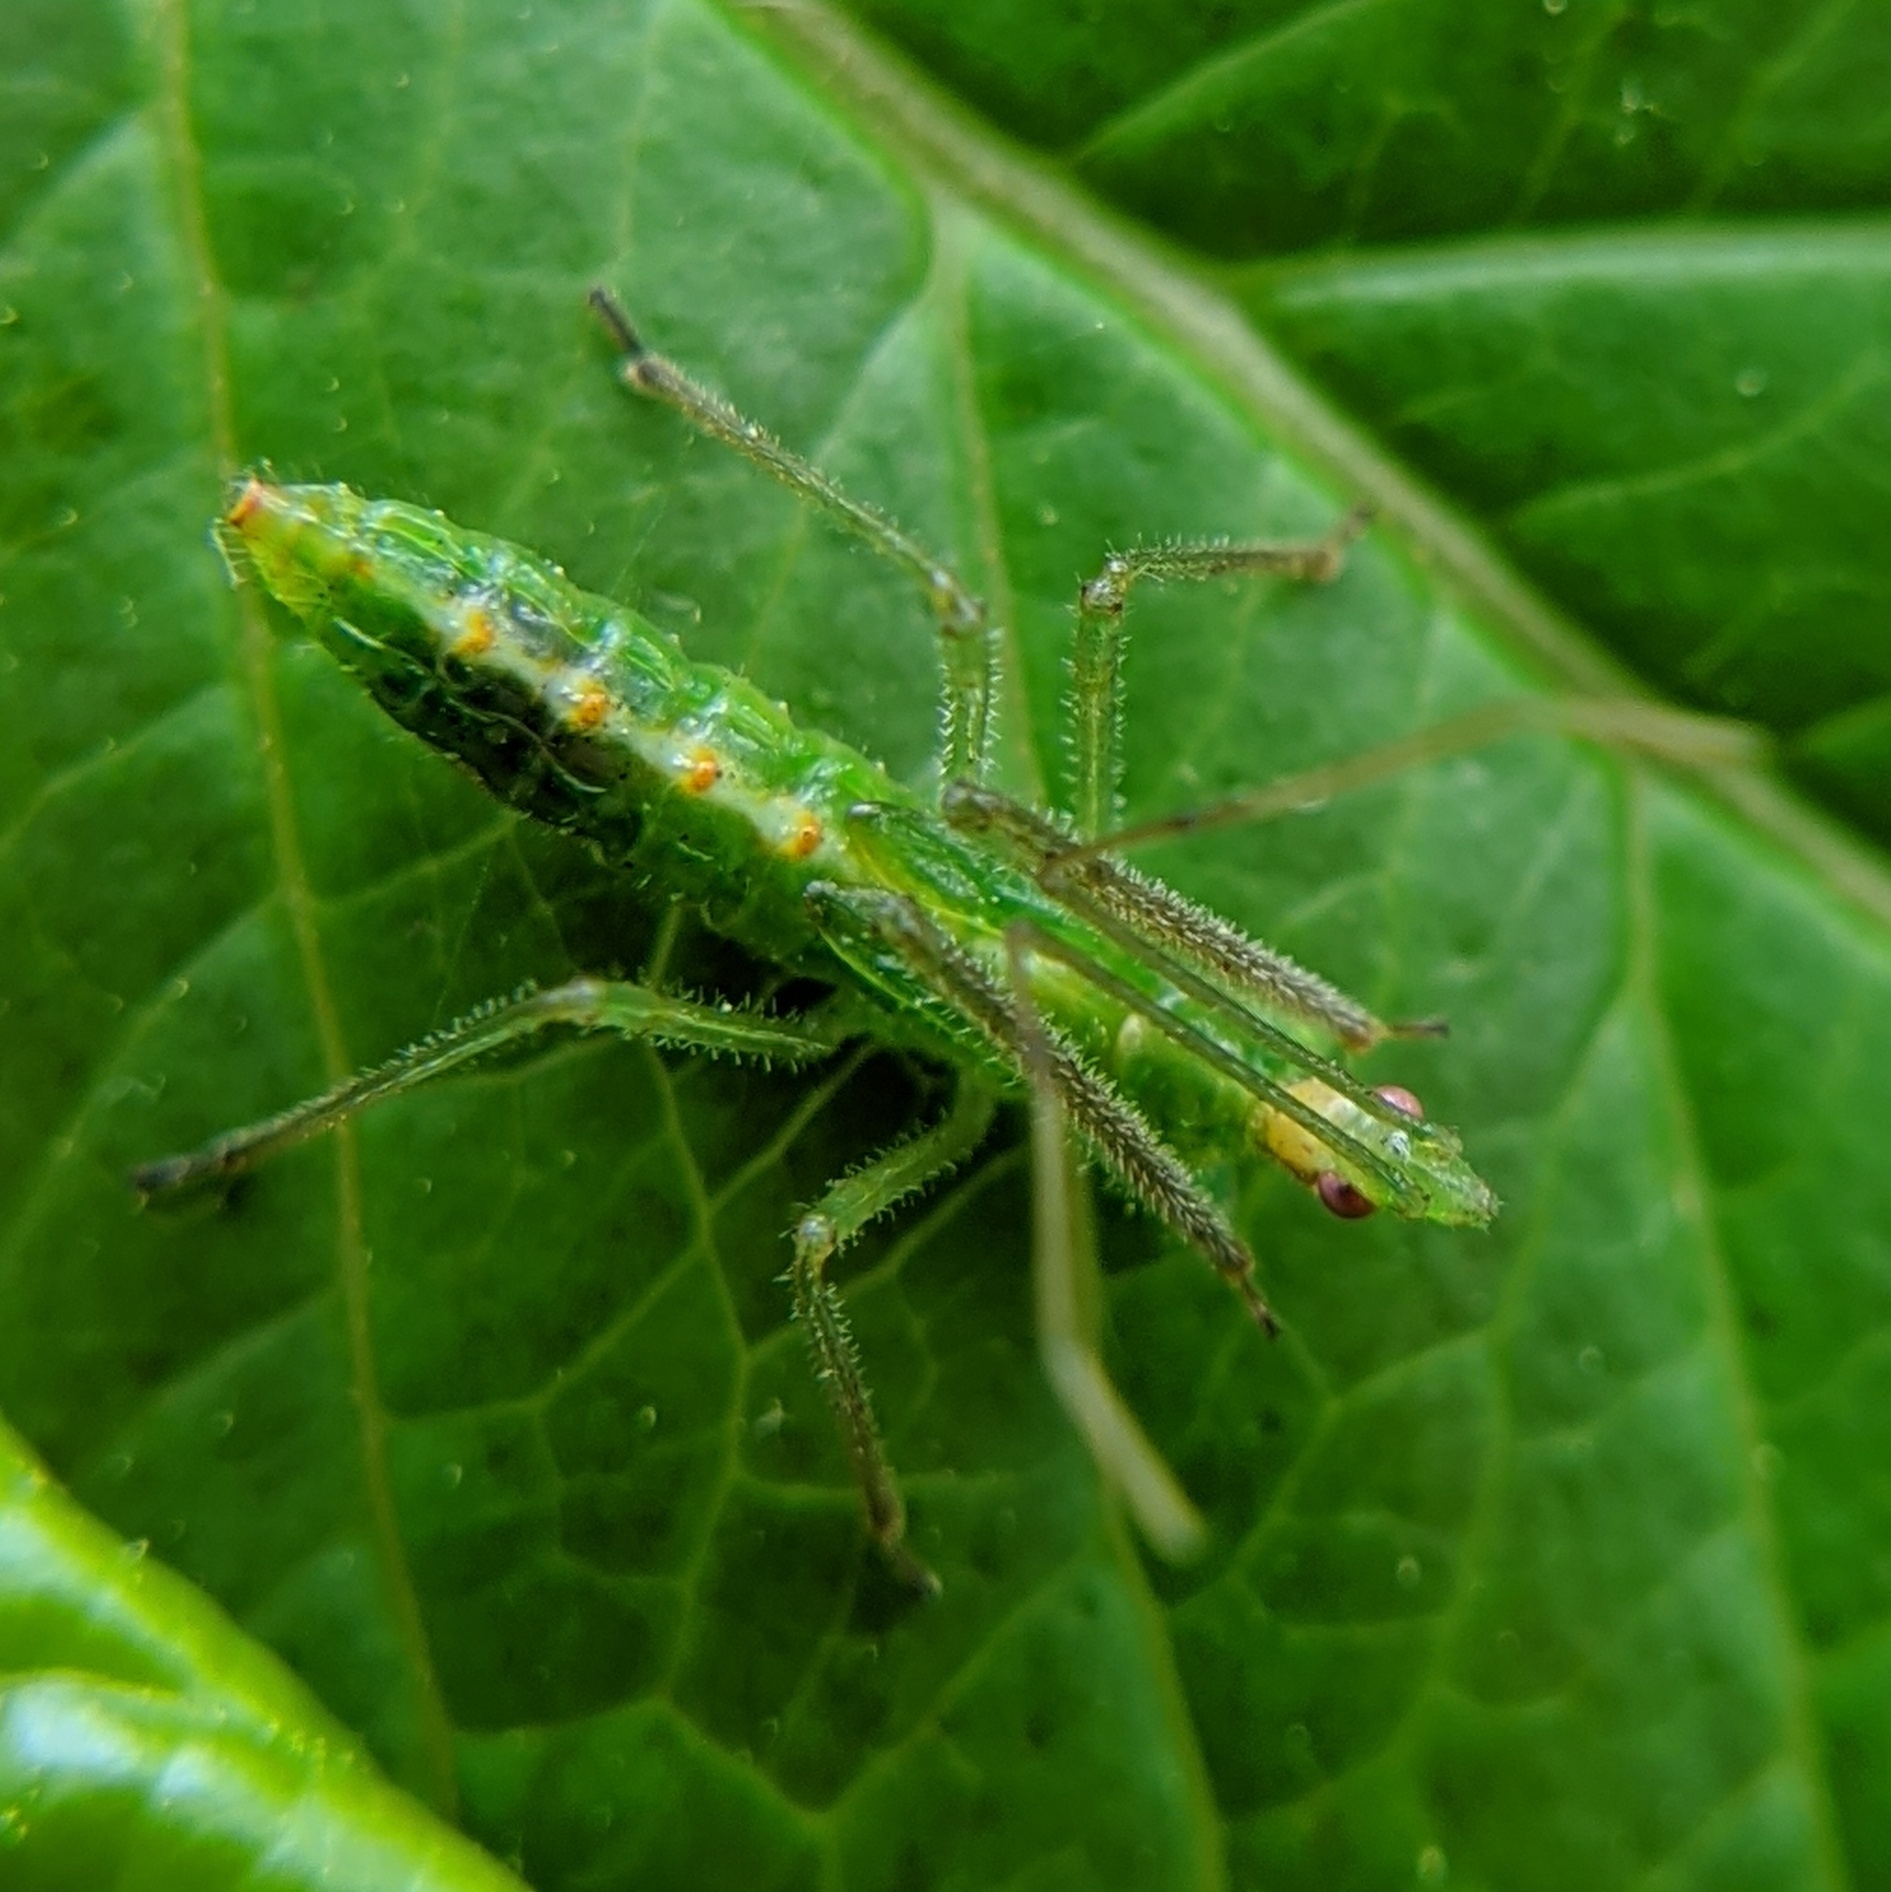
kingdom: Animalia
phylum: Arthropoda
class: Insecta
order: Hemiptera
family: Reduviidae
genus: Zelus
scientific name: Zelus luridus
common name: Pale green assassin bug
